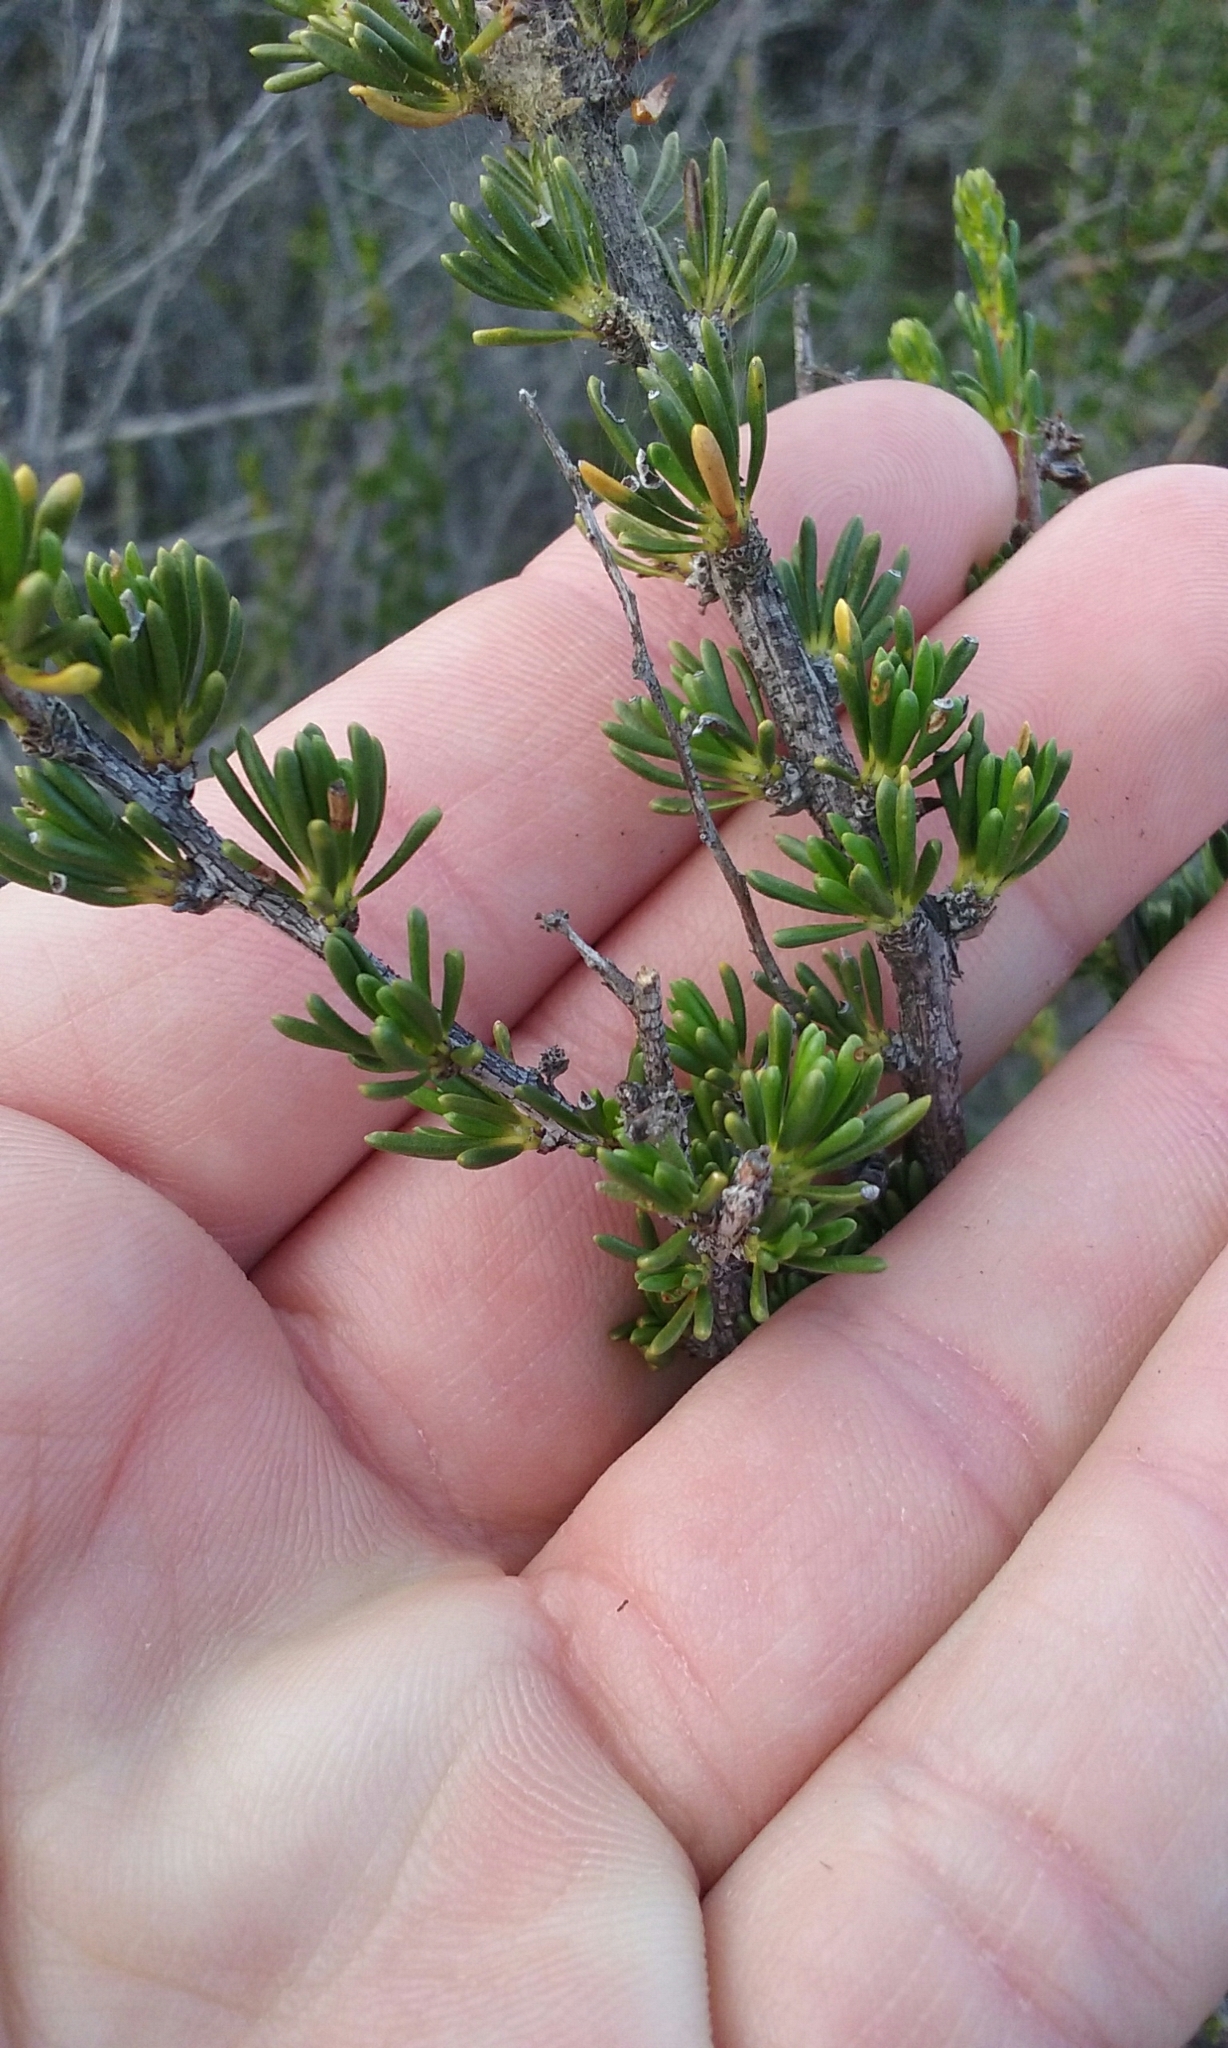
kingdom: Plantae
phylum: Tracheophyta
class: Magnoliopsida
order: Rosales
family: Rosaceae
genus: Adenostoma
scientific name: Adenostoma fasciculatum
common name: Chamise
